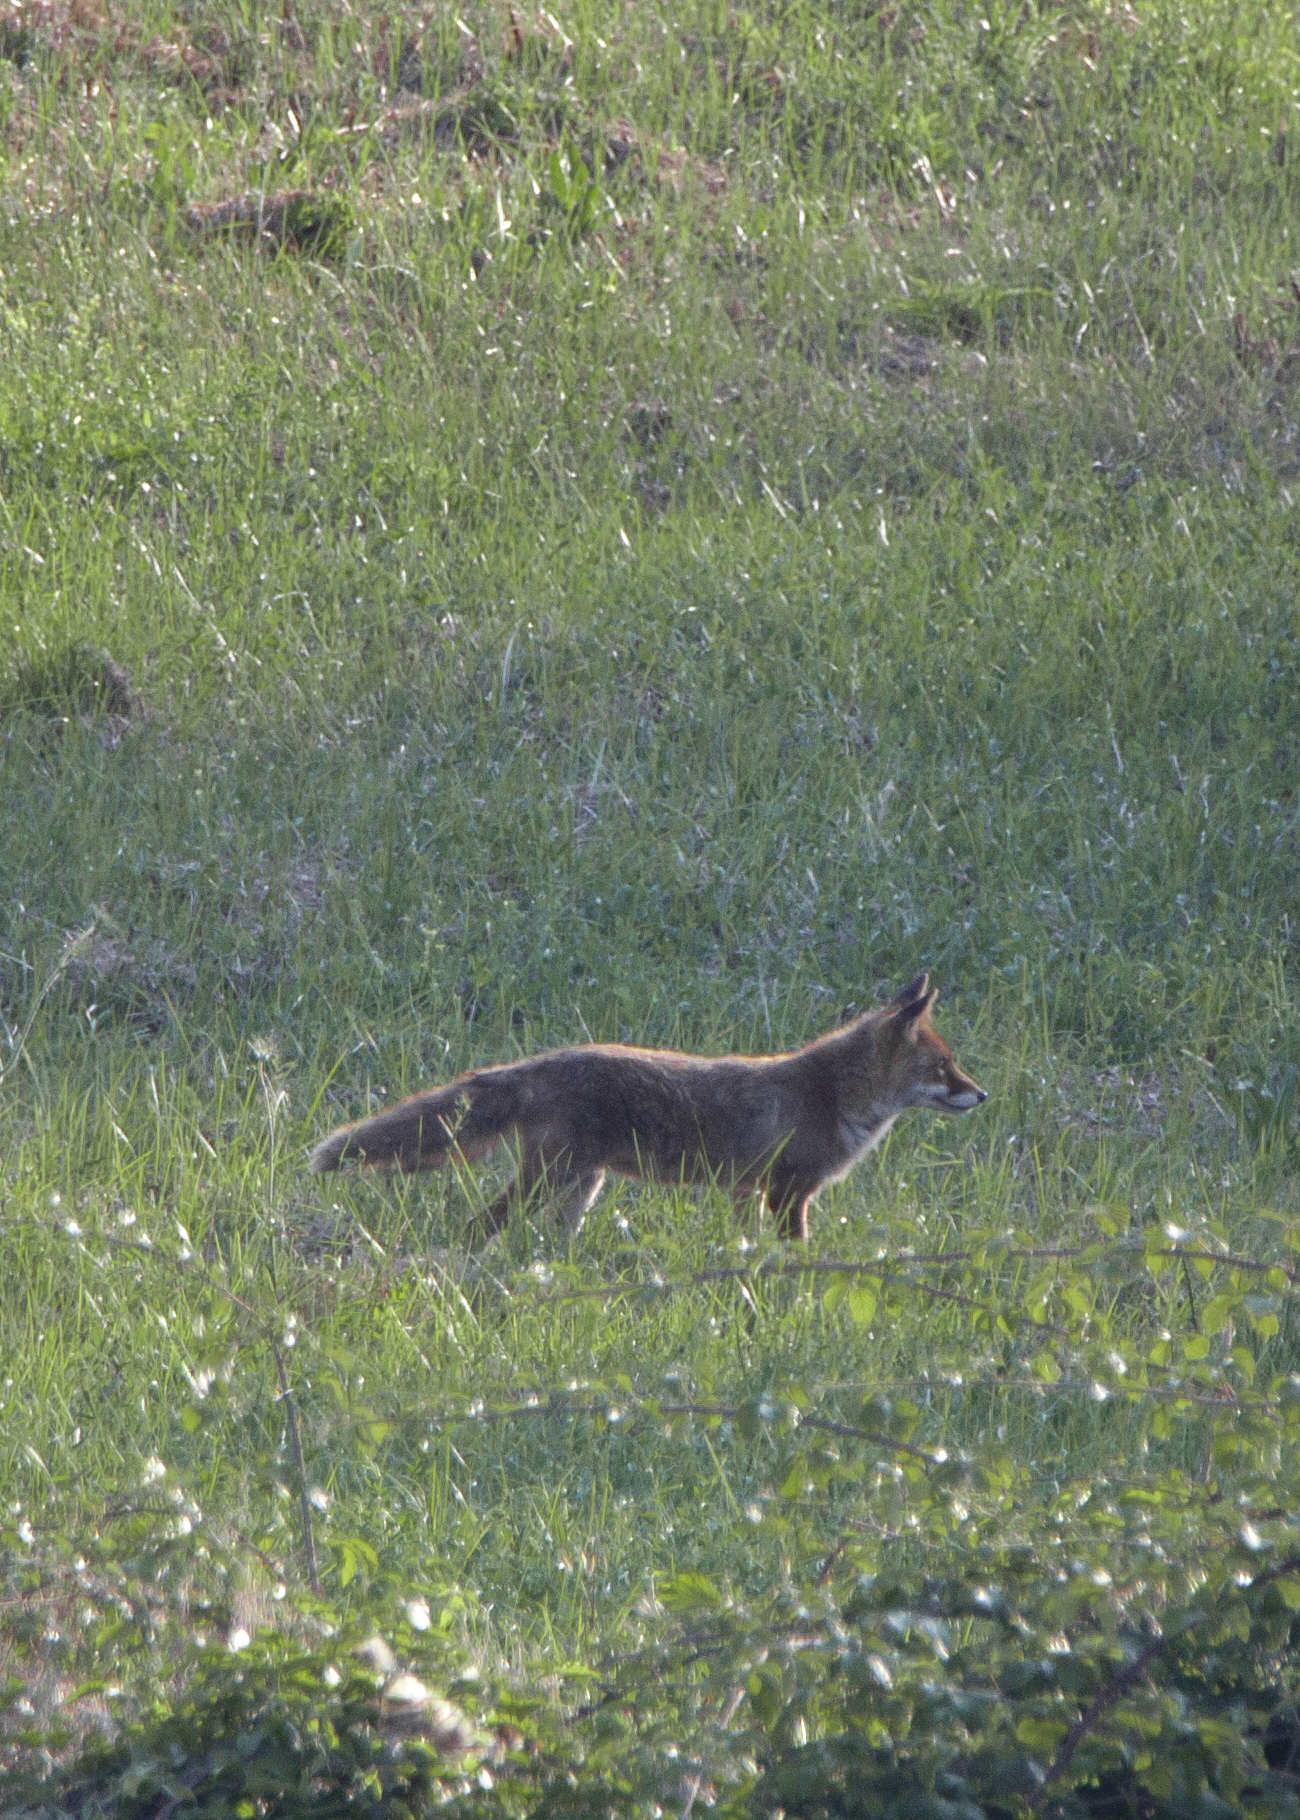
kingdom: Animalia
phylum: Chordata
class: Mammalia
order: Carnivora
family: Canidae
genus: Vulpes
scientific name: Vulpes vulpes
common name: Red fox
